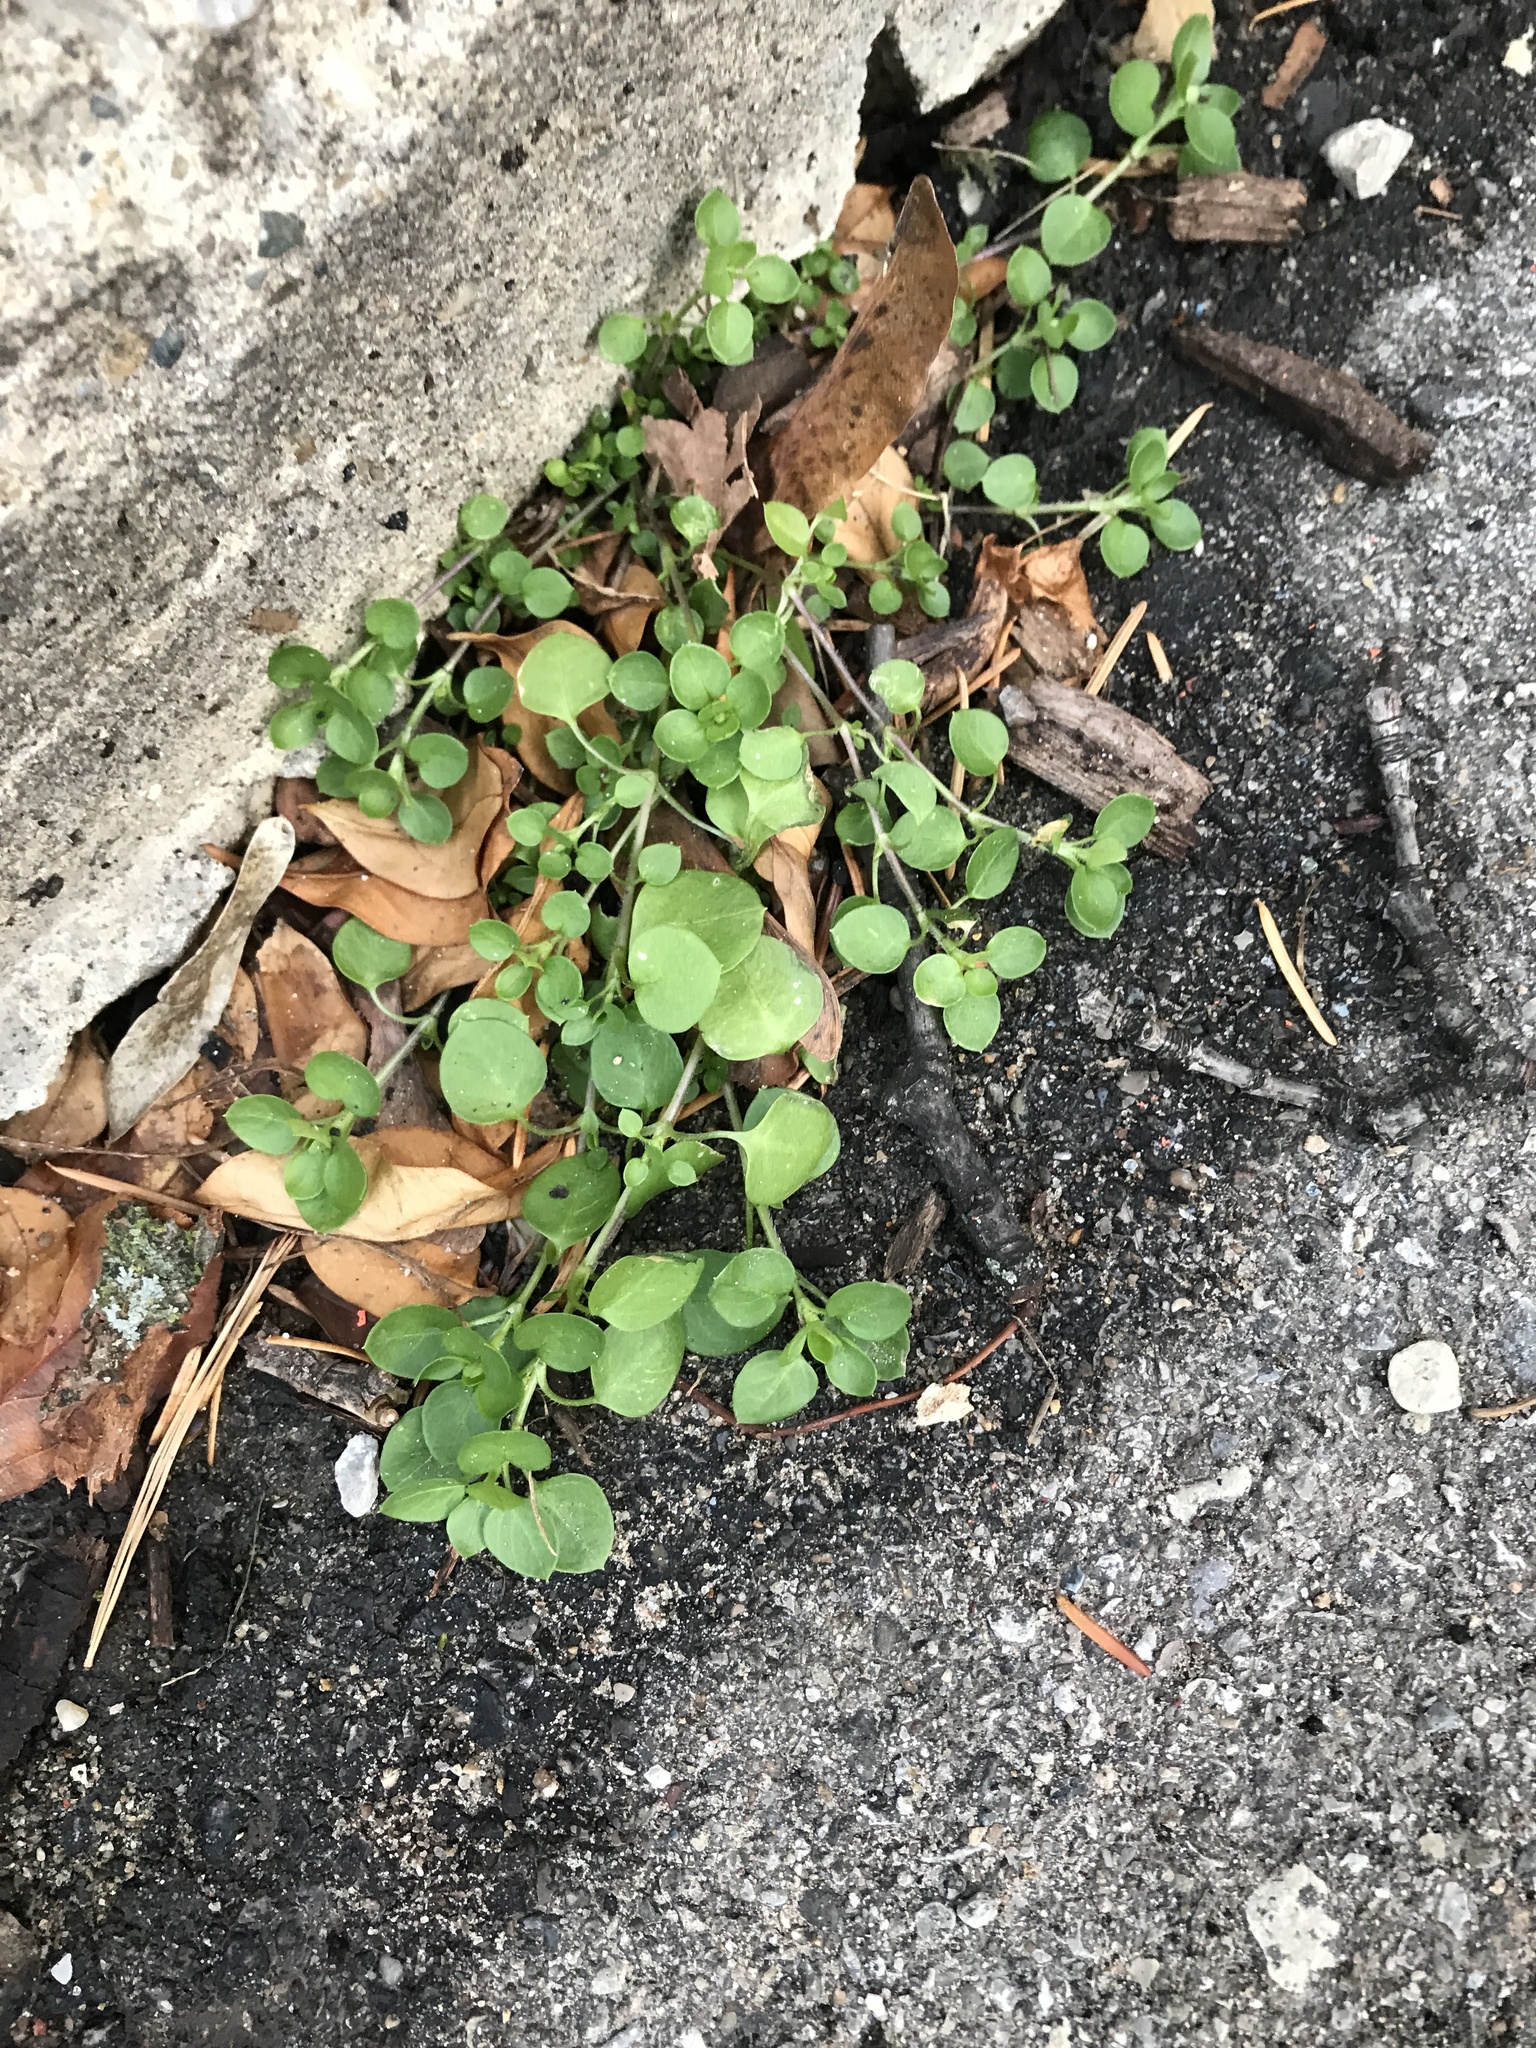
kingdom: Plantae
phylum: Tracheophyta
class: Magnoliopsida
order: Caryophyllales
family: Caryophyllaceae
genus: Stellaria
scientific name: Stellaria media
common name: Common chickweed
